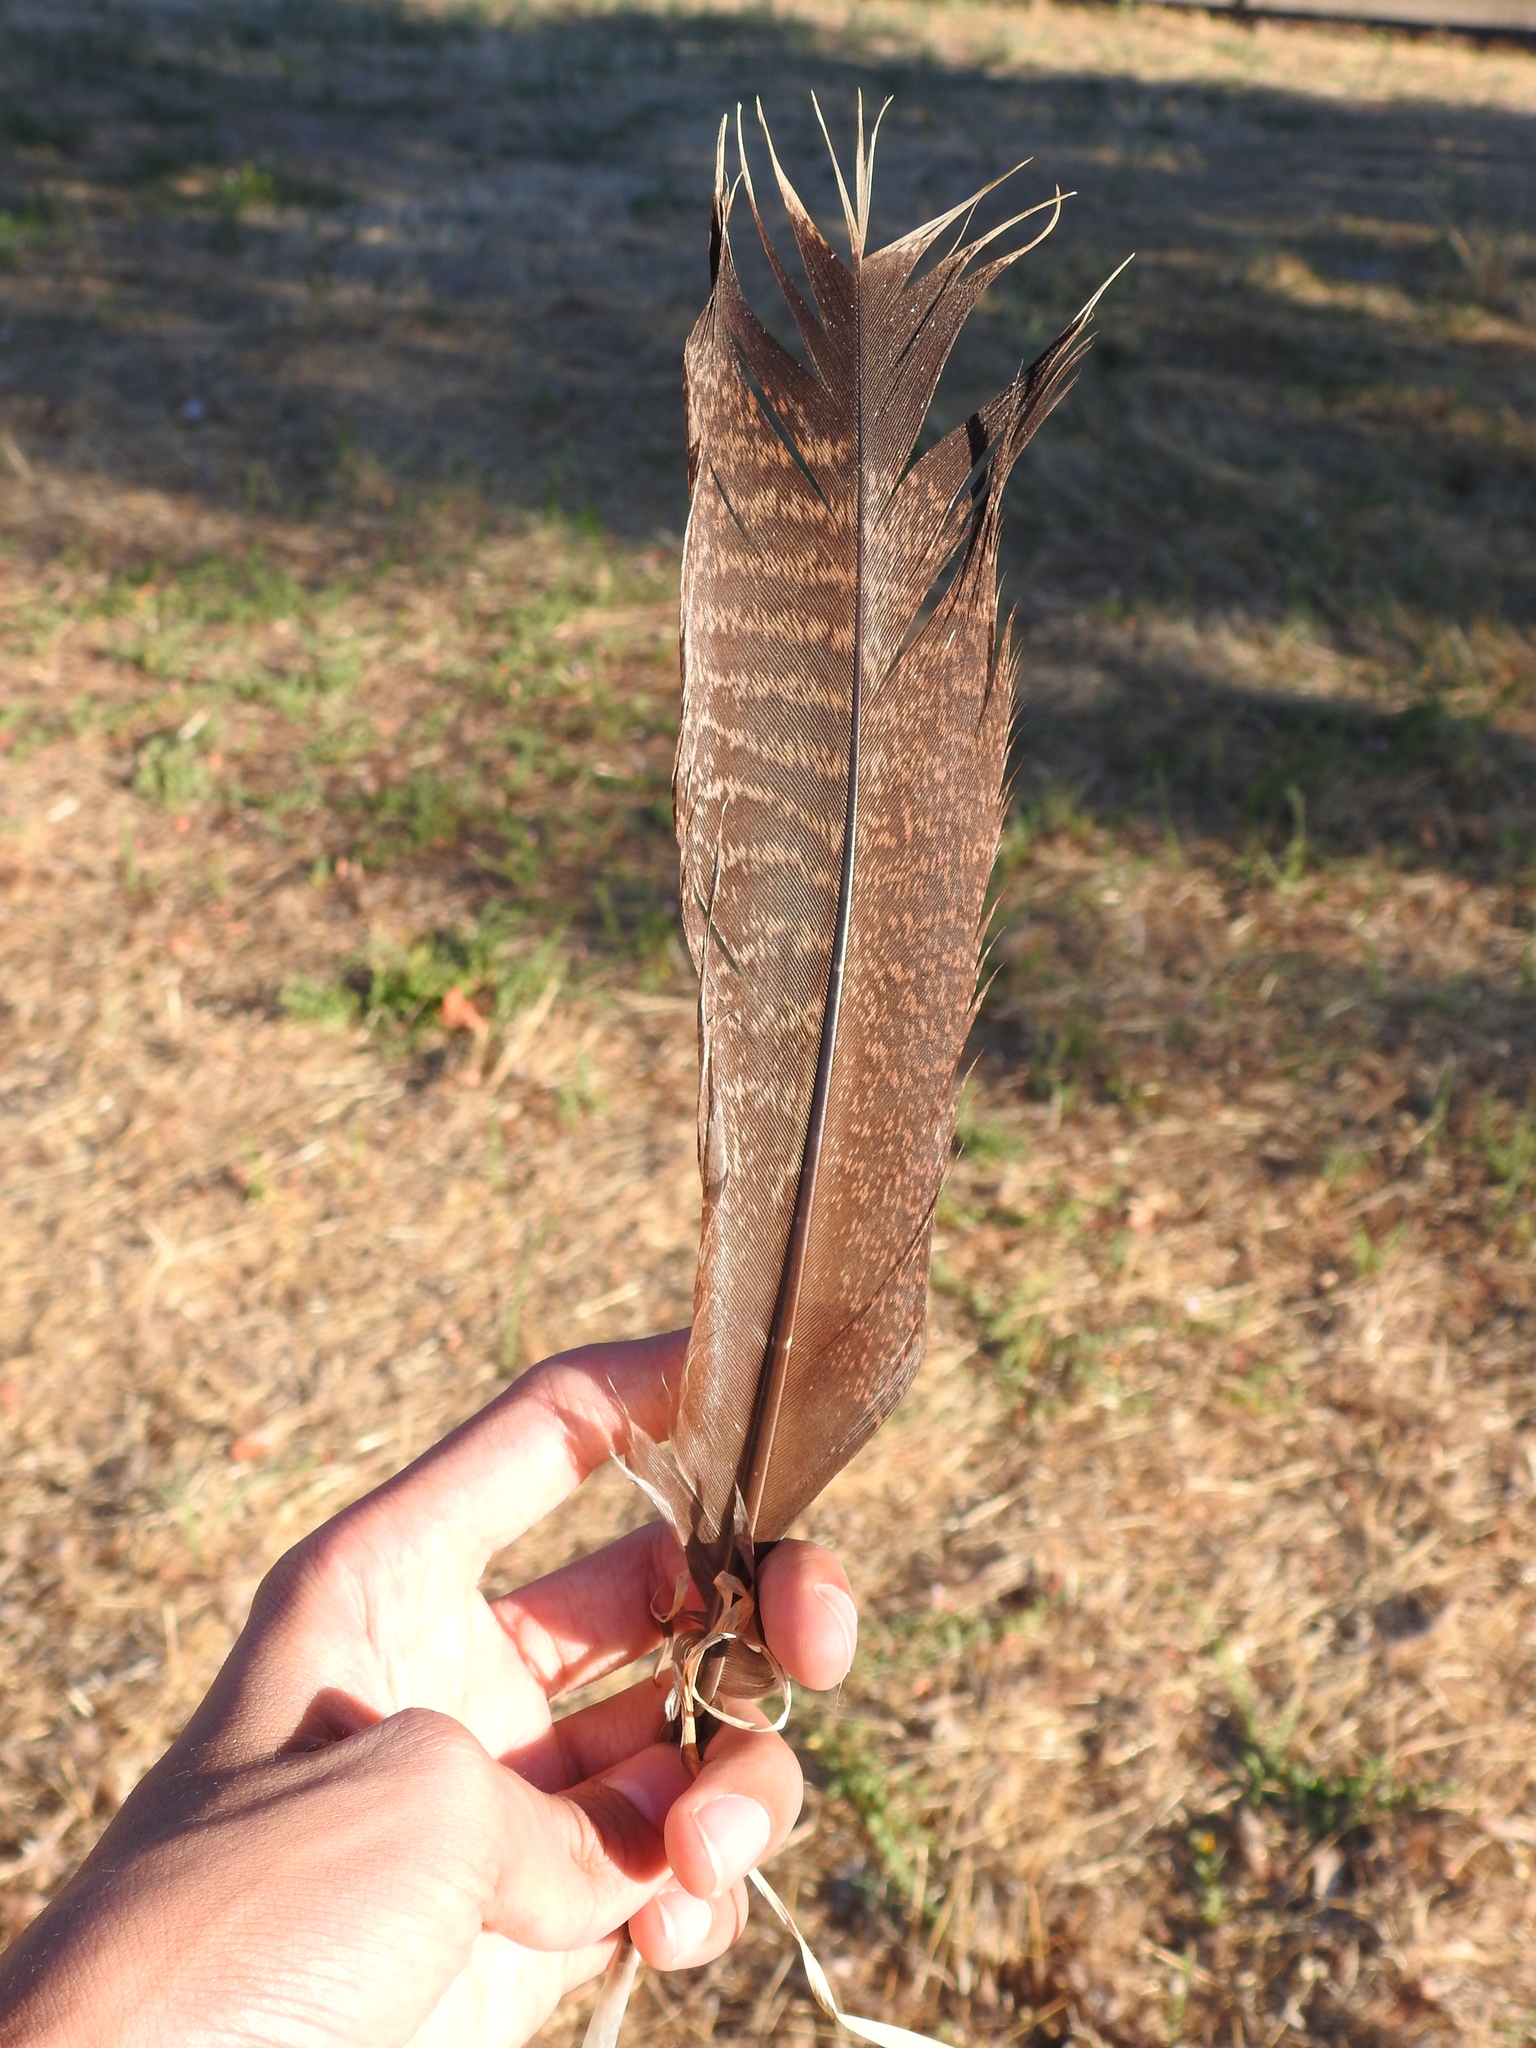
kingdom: Animalia
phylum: Chordata
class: Aves
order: Galliformes
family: Phasianidae
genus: Meleagris
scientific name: Meleagris gallopavo
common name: Wild turkey
